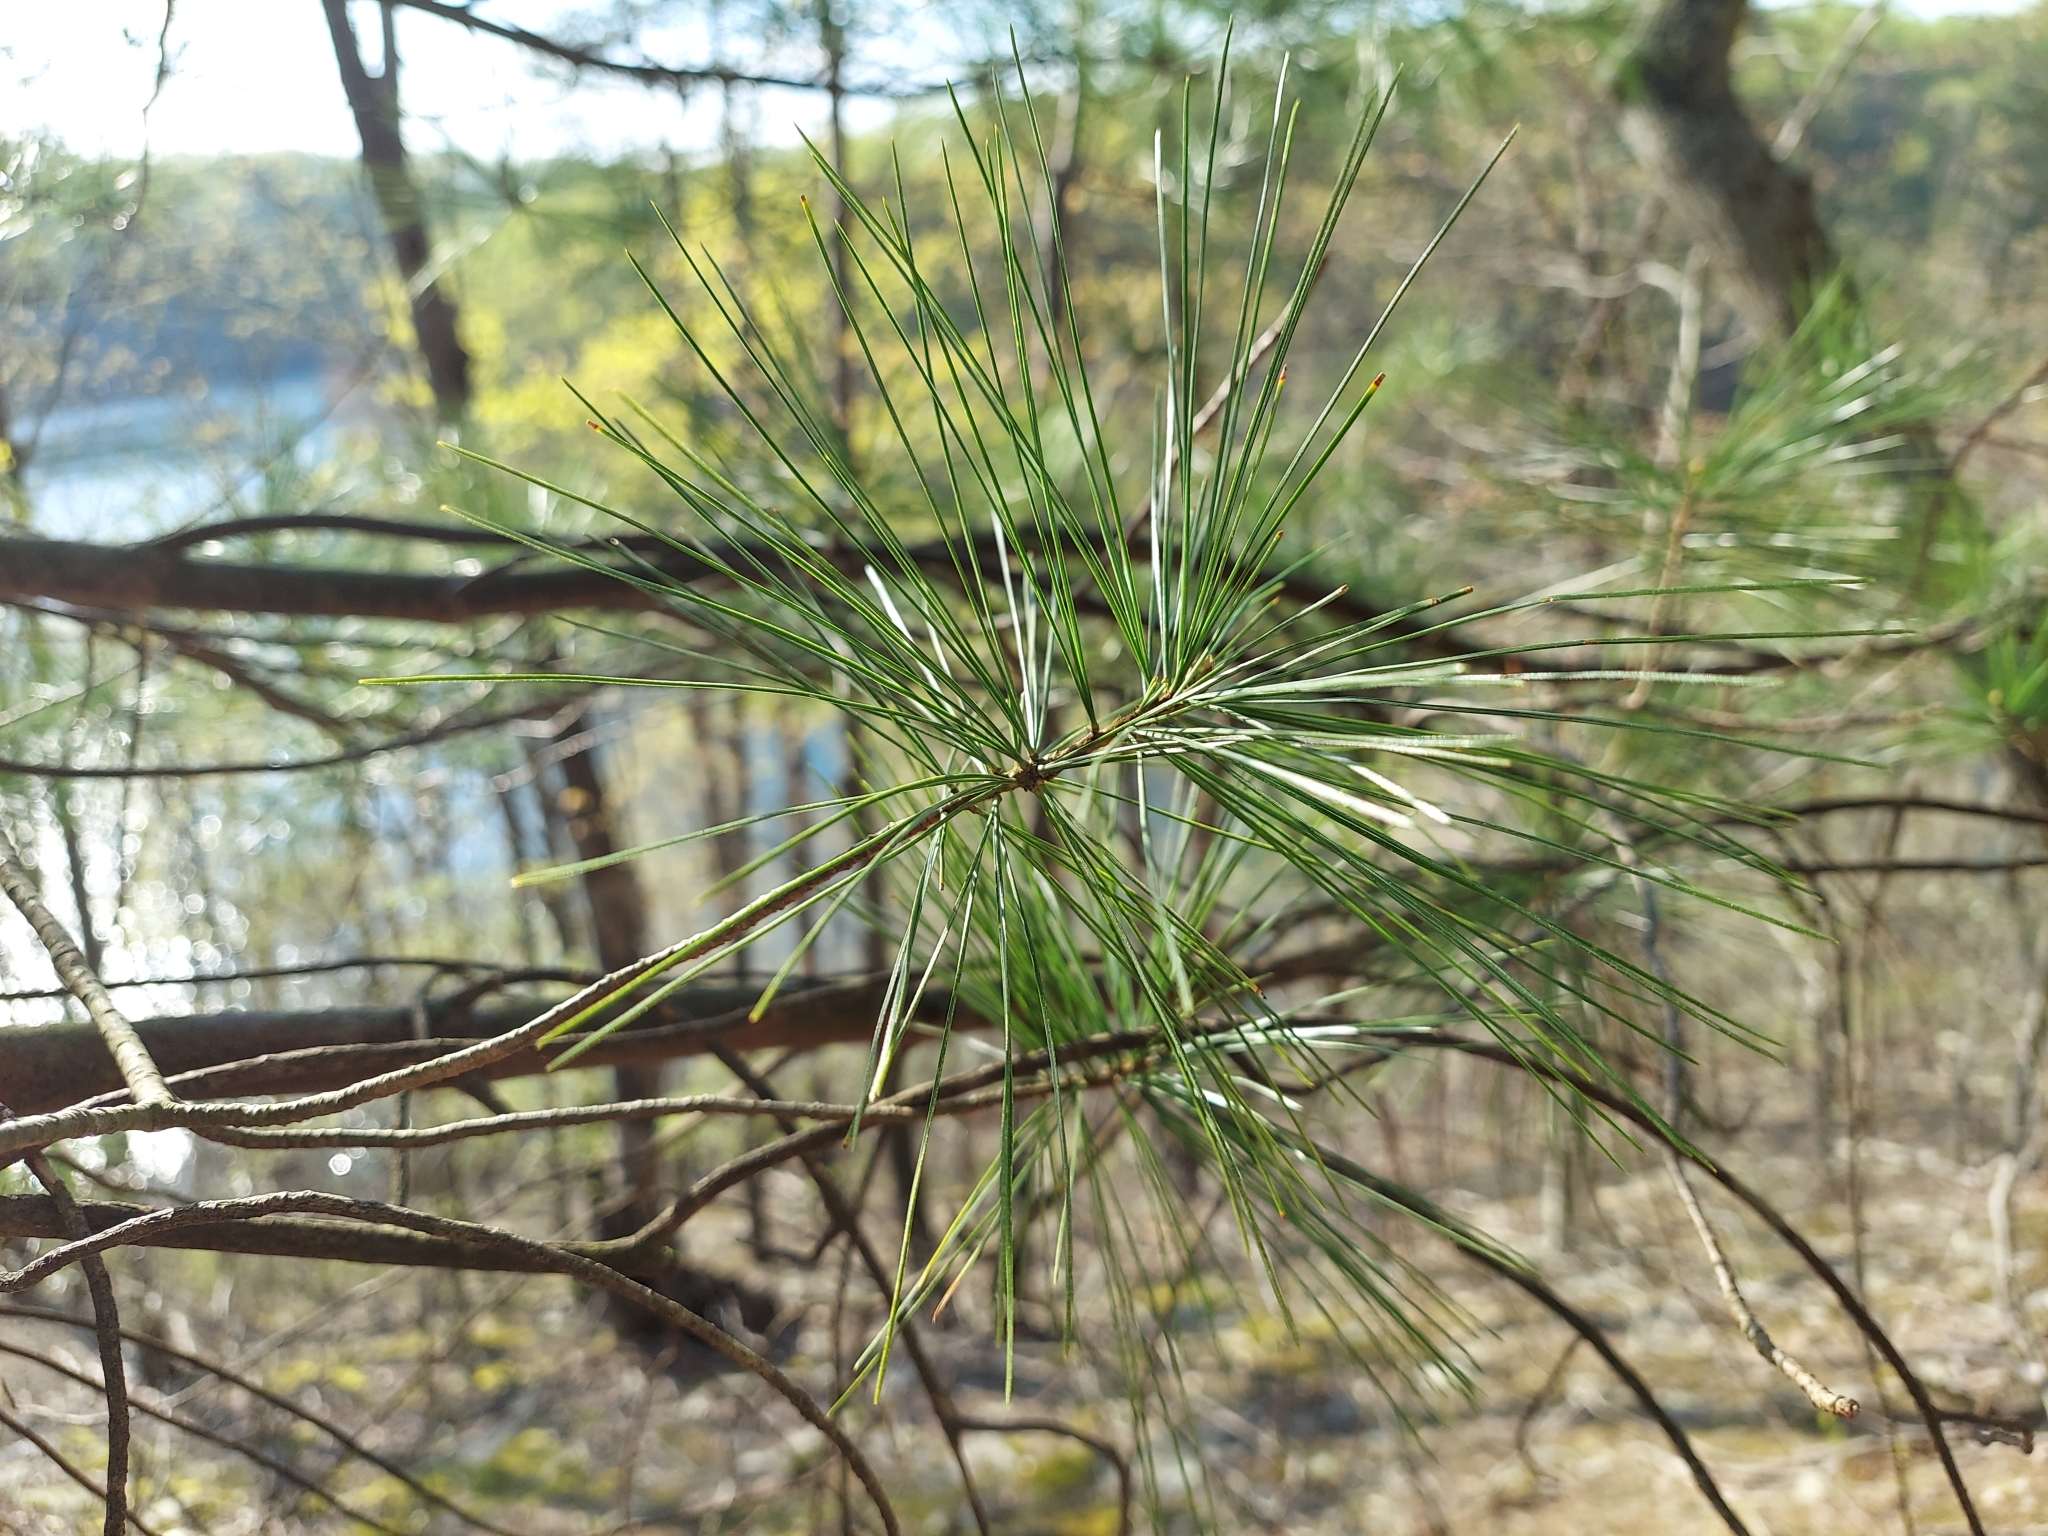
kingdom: Plantae
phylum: Tracheophyta
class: Pinopsida
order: Pinales
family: Pinaceae
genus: Pinus
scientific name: Pinus strobus
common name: Weymouth pine
